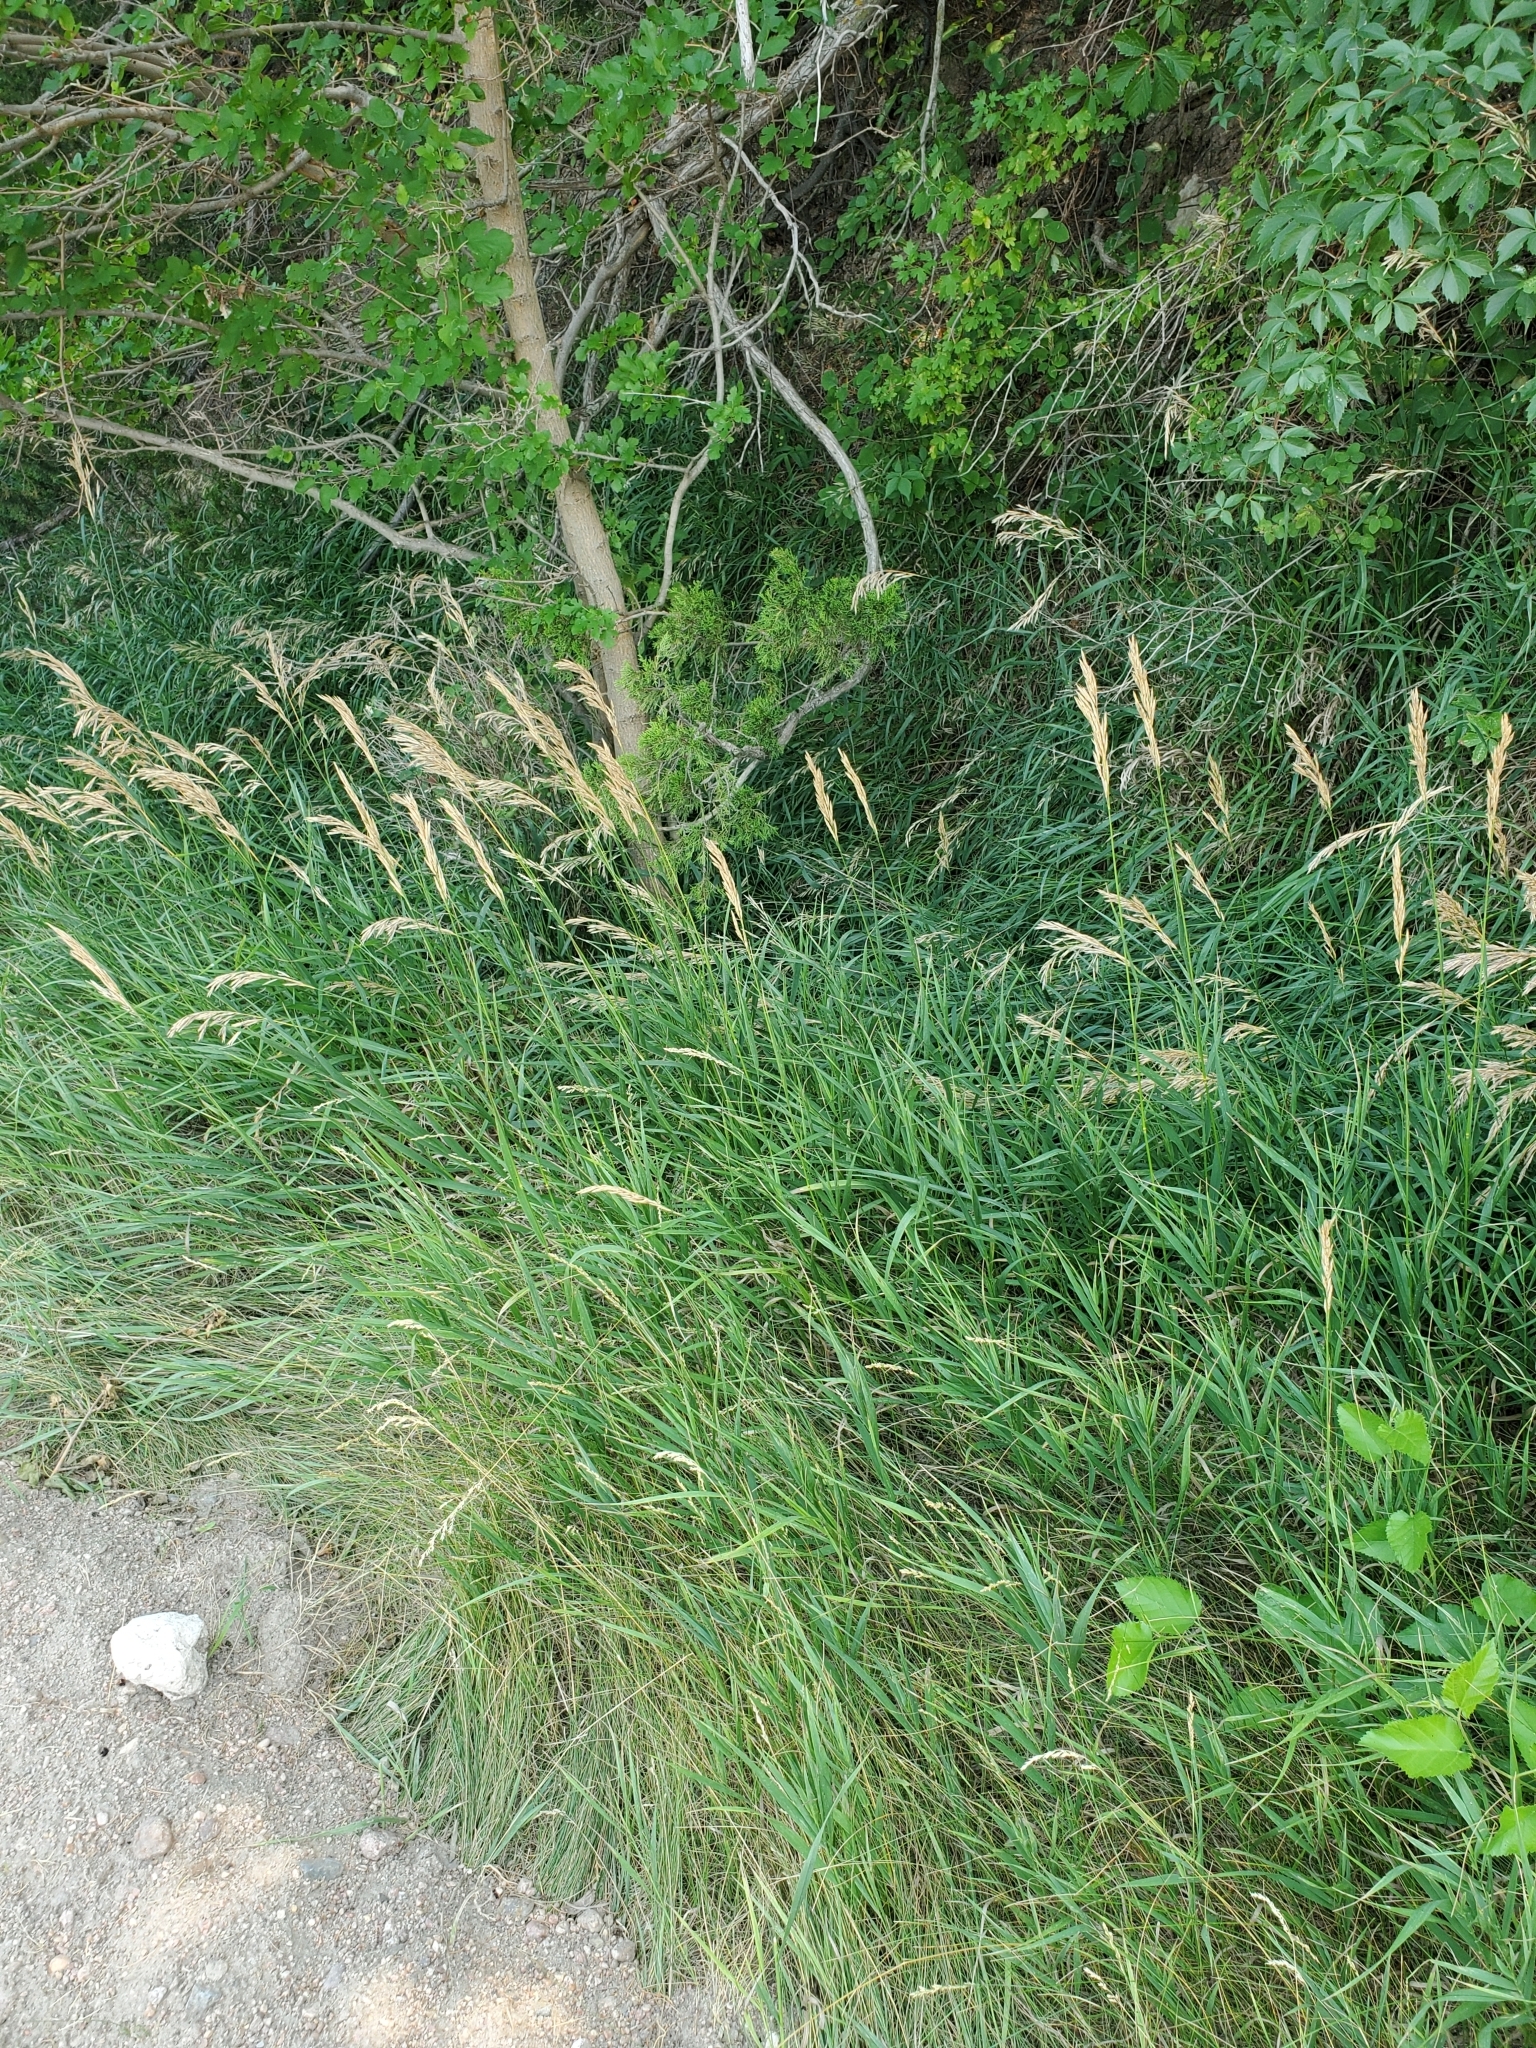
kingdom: Plantae
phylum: Tracheophyta
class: Liliopsida
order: Poales
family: Poaceae
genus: Bromus
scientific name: Bromus inermis
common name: Smooth brome
